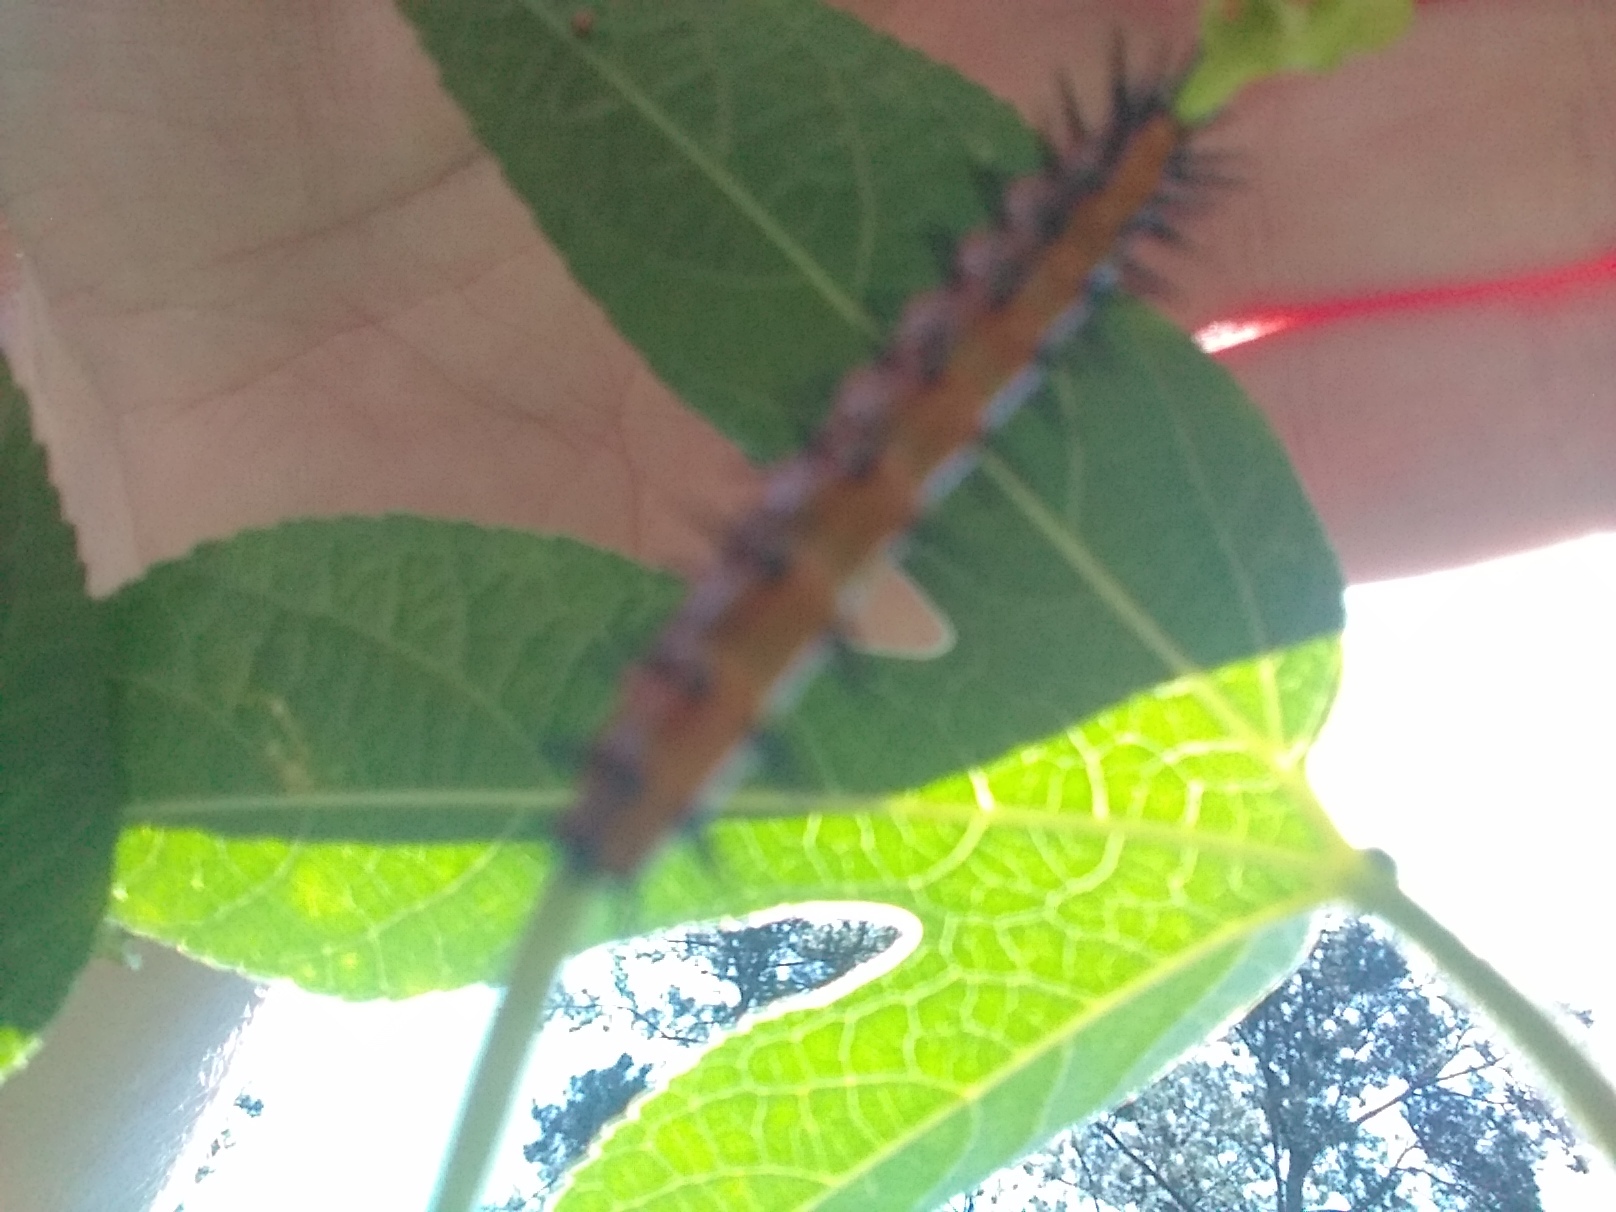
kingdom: Animalia
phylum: Arthropoda
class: Insecta
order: Lepidoptera
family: Nymphalidae
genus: Dione
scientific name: Dione vanillae
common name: Gulf fritillary
